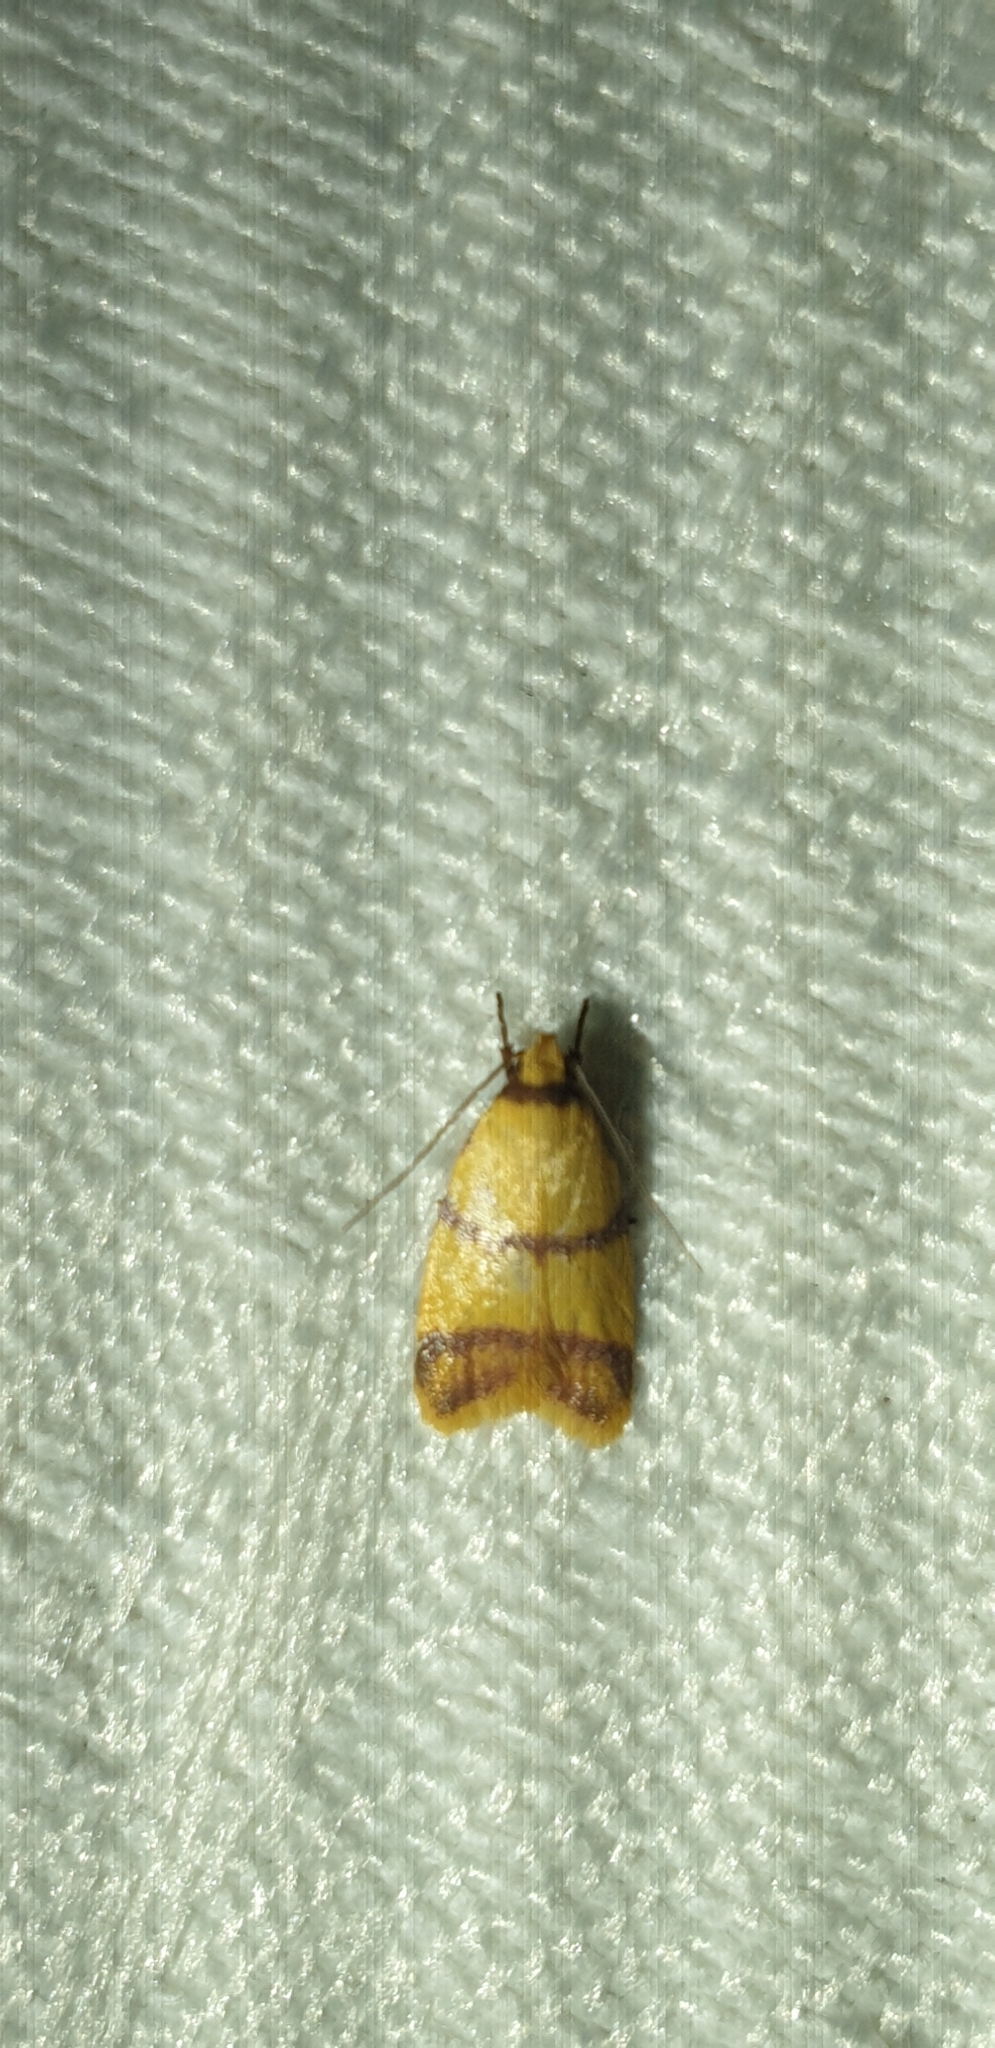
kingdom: Animalia
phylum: Arthropoda
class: Insecta
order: Lepidoptera
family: Oecophoridae
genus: Heteroteucha
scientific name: Heteroteucha translatella
